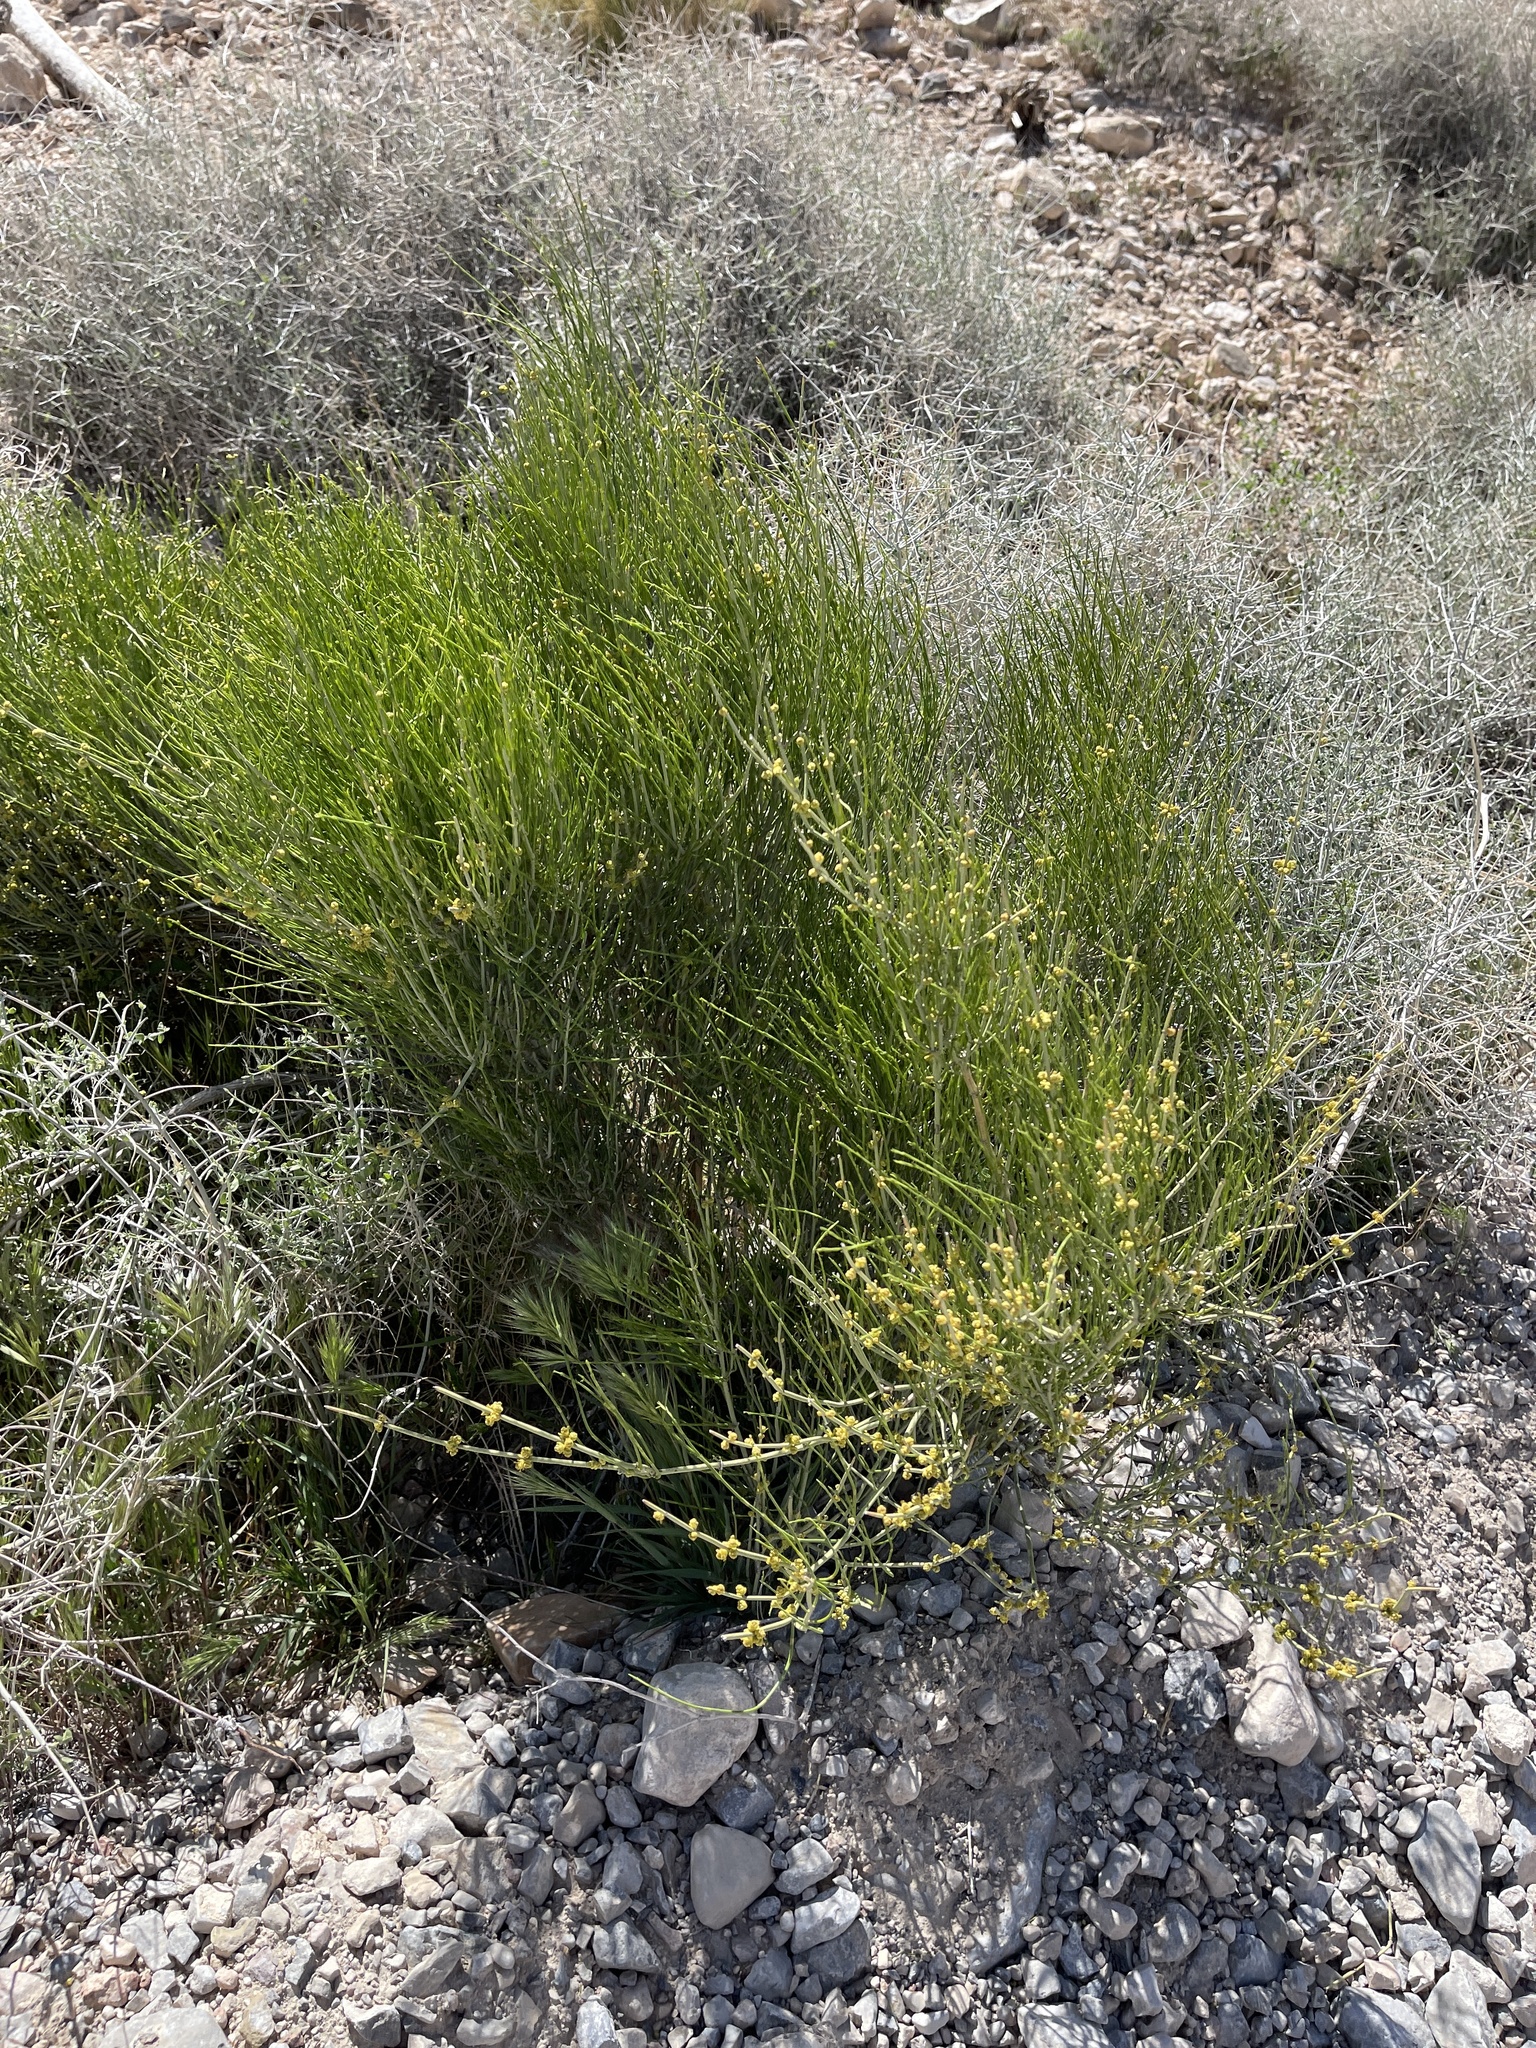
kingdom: Plantae
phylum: Tracheophyta
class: Gnetopsida
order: Ephedrales
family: Ephedraceae
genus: Ephedra
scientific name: Ephedra viridis
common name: Green ephedra
